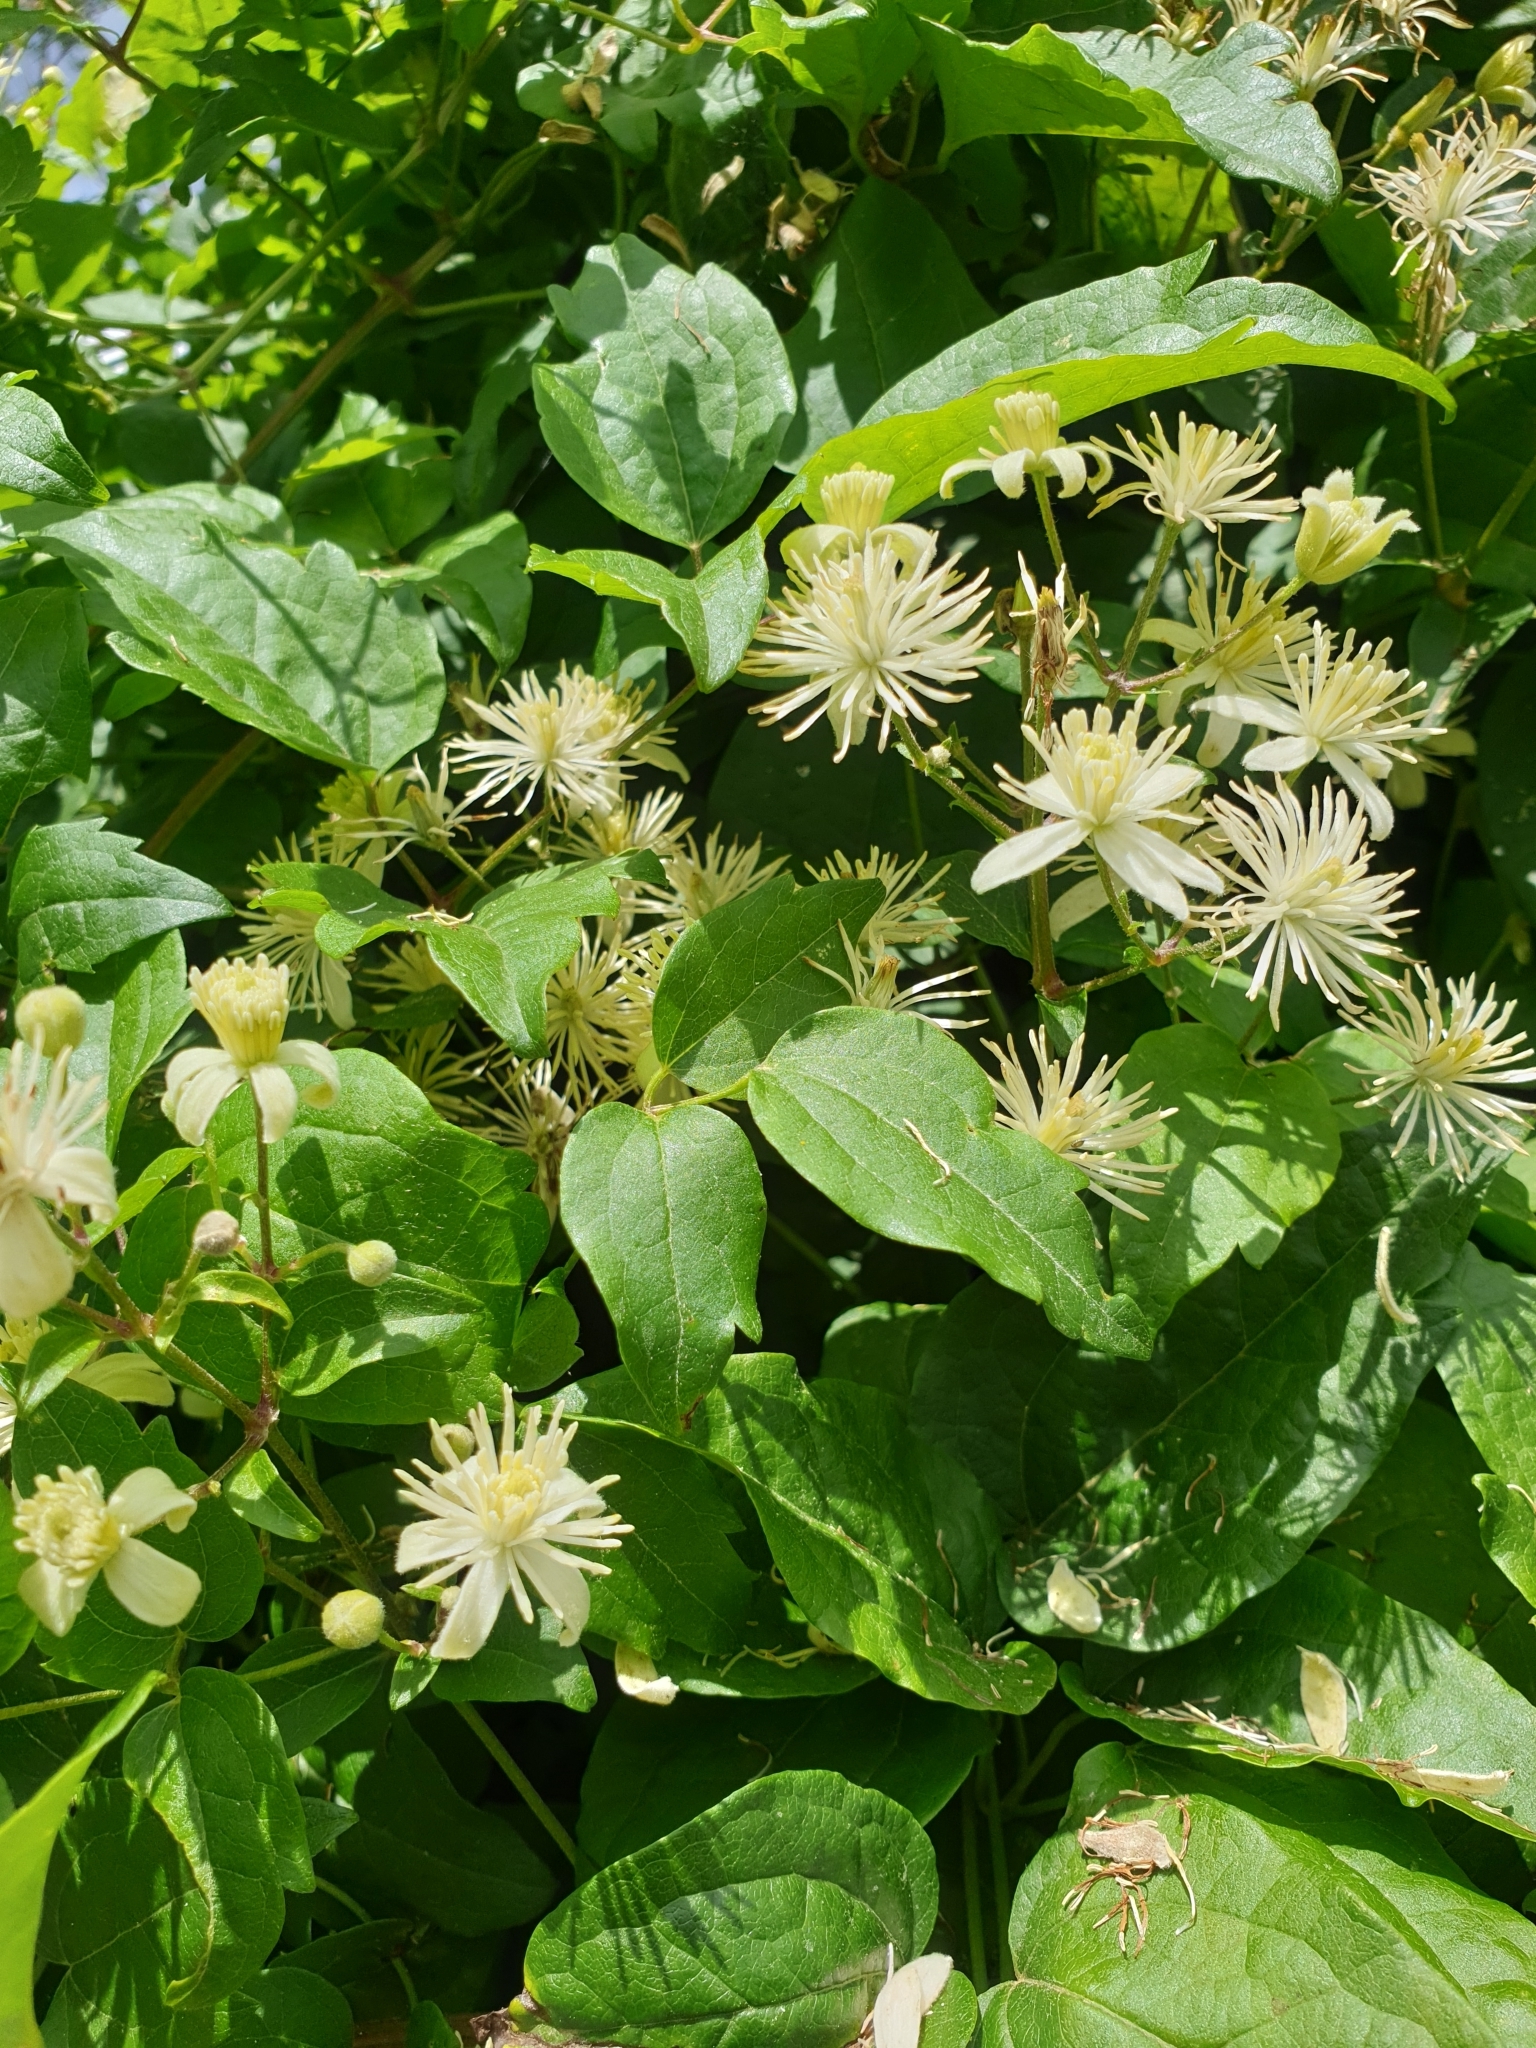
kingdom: Plantae
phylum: Tracheophyta
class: Magnoliopsida
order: Ranunculales
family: Ranunculaceae
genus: Clematis
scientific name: Clematis vitalba
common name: Evergreen clematis
